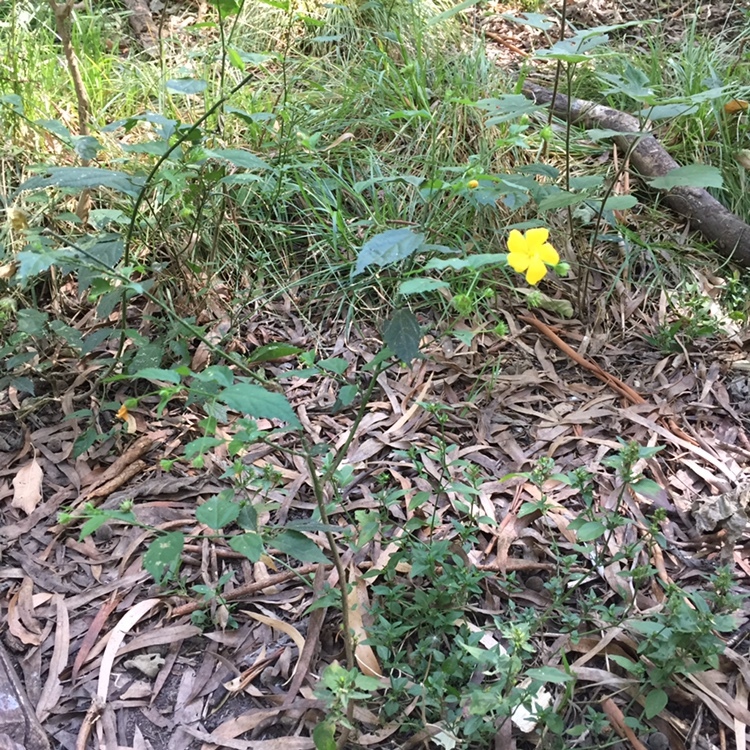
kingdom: Plantae
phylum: Tracheophyta
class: Magnoliopsida
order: Malvales
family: Malvaceae
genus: Pavonia
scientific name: Pavonia sepium
